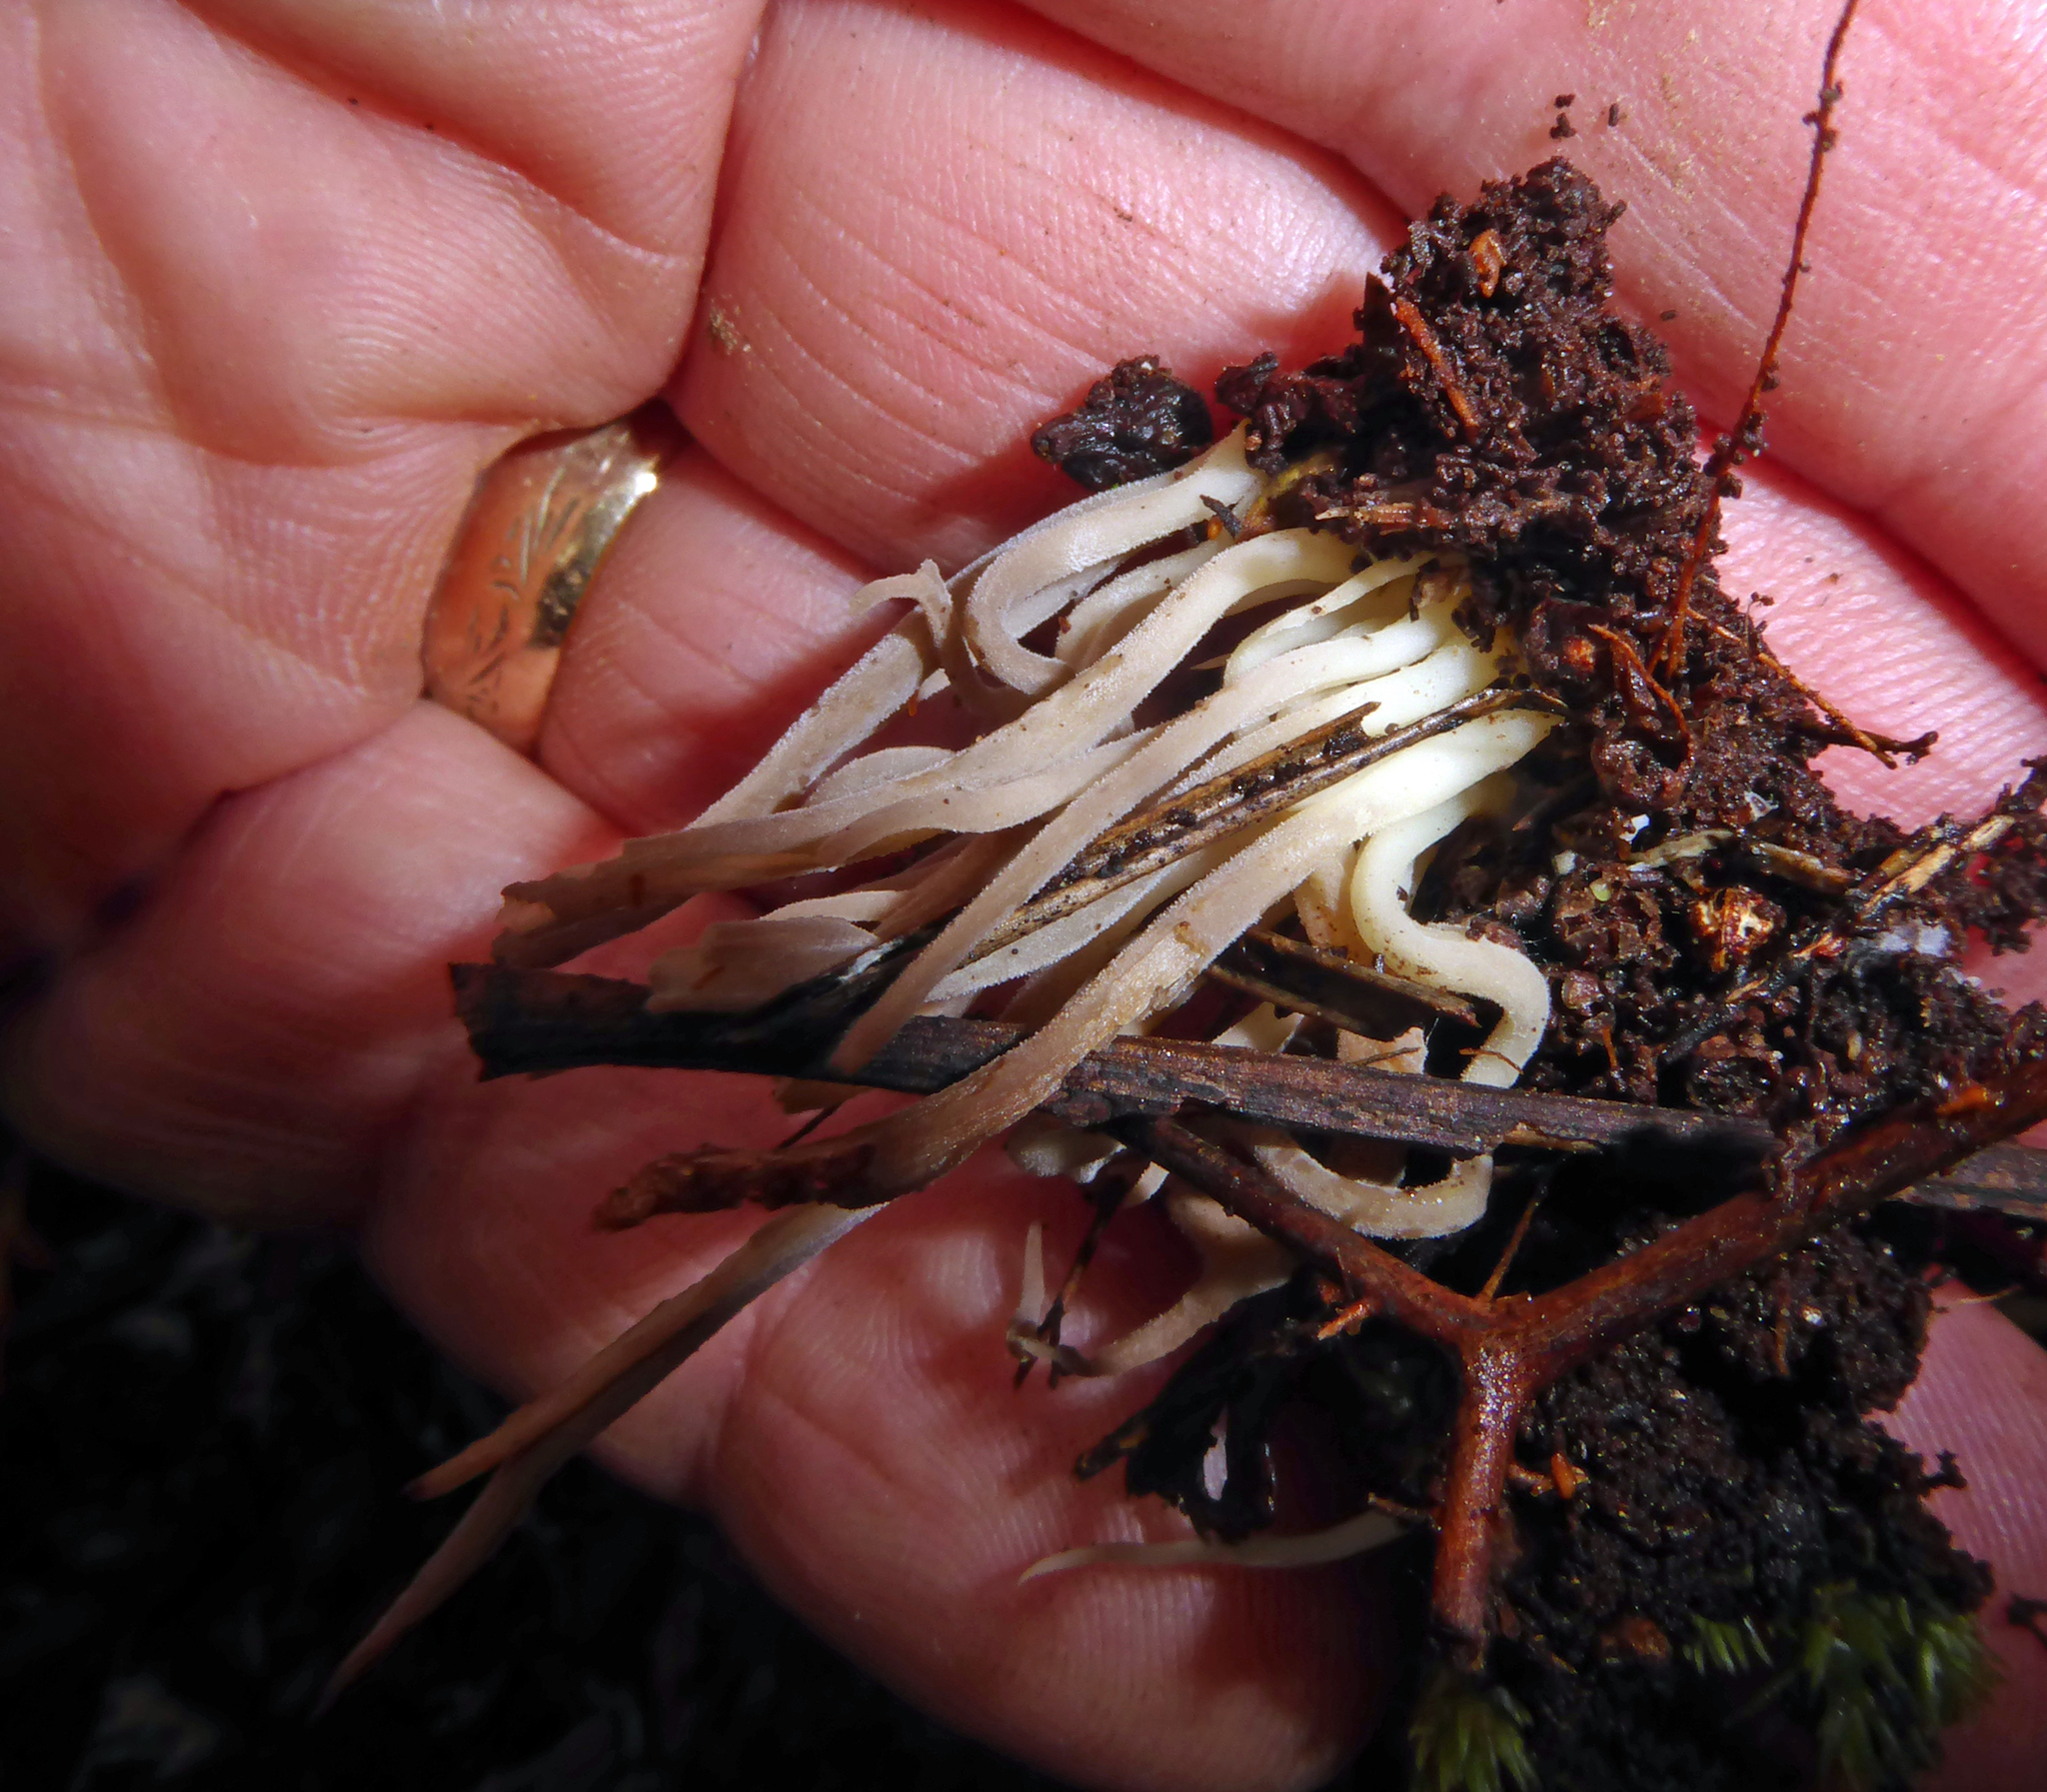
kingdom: Fungi
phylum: Basidiomycota
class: Agaricomycetes
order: Cantharellales
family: Hydnaceae
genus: Clavulina
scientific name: Clavulina subrugosa
